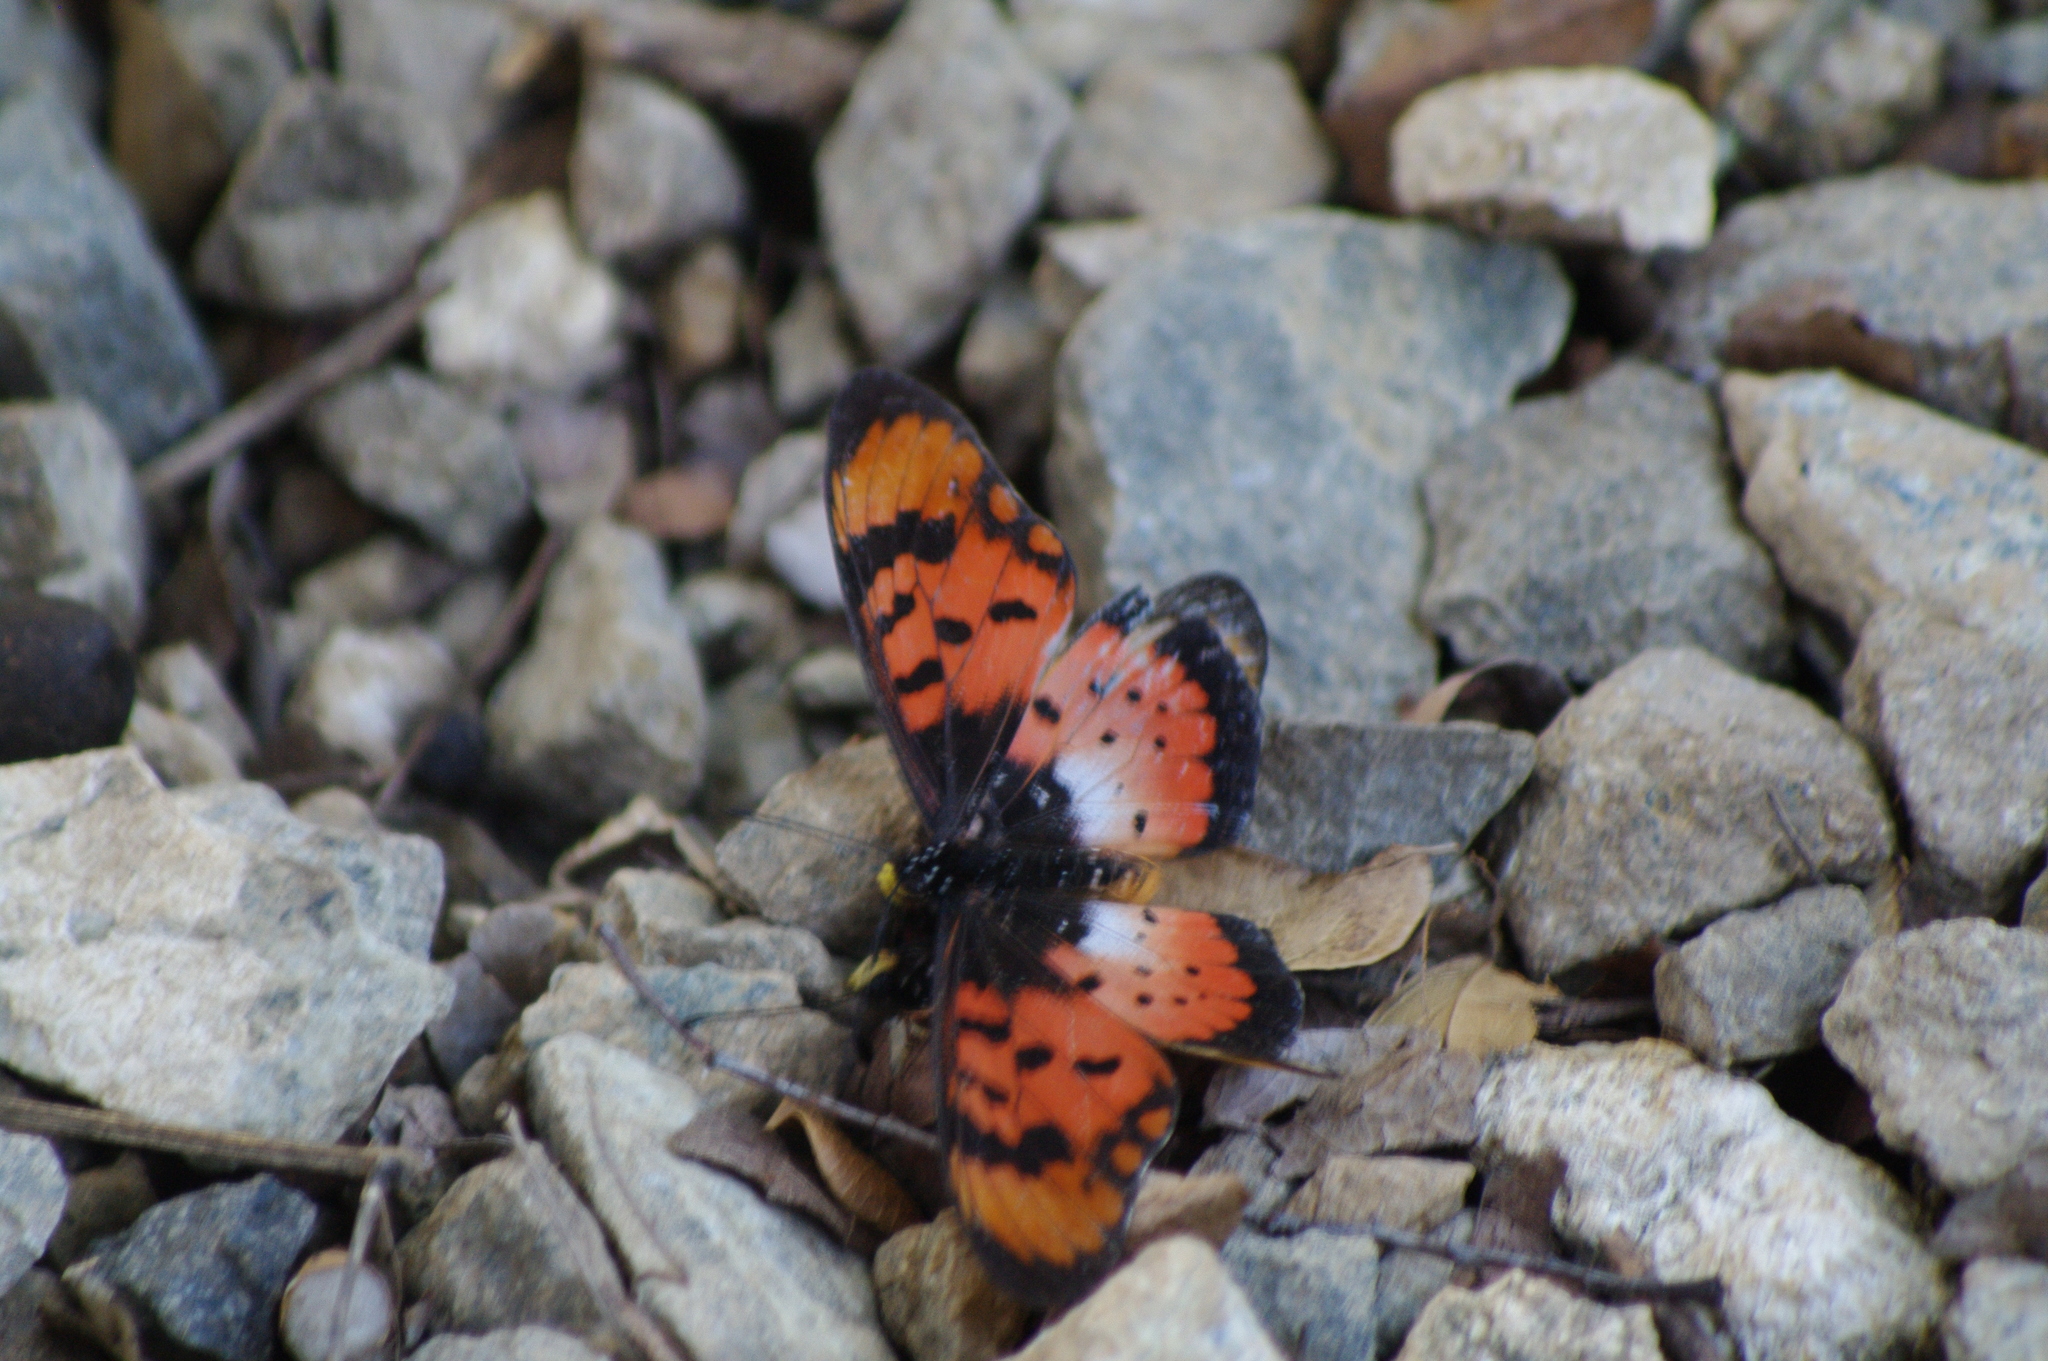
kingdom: Animalia
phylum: Arthropoda
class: Insecta
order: Lepidoptera
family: Nymphalidae
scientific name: Nymphalidae
